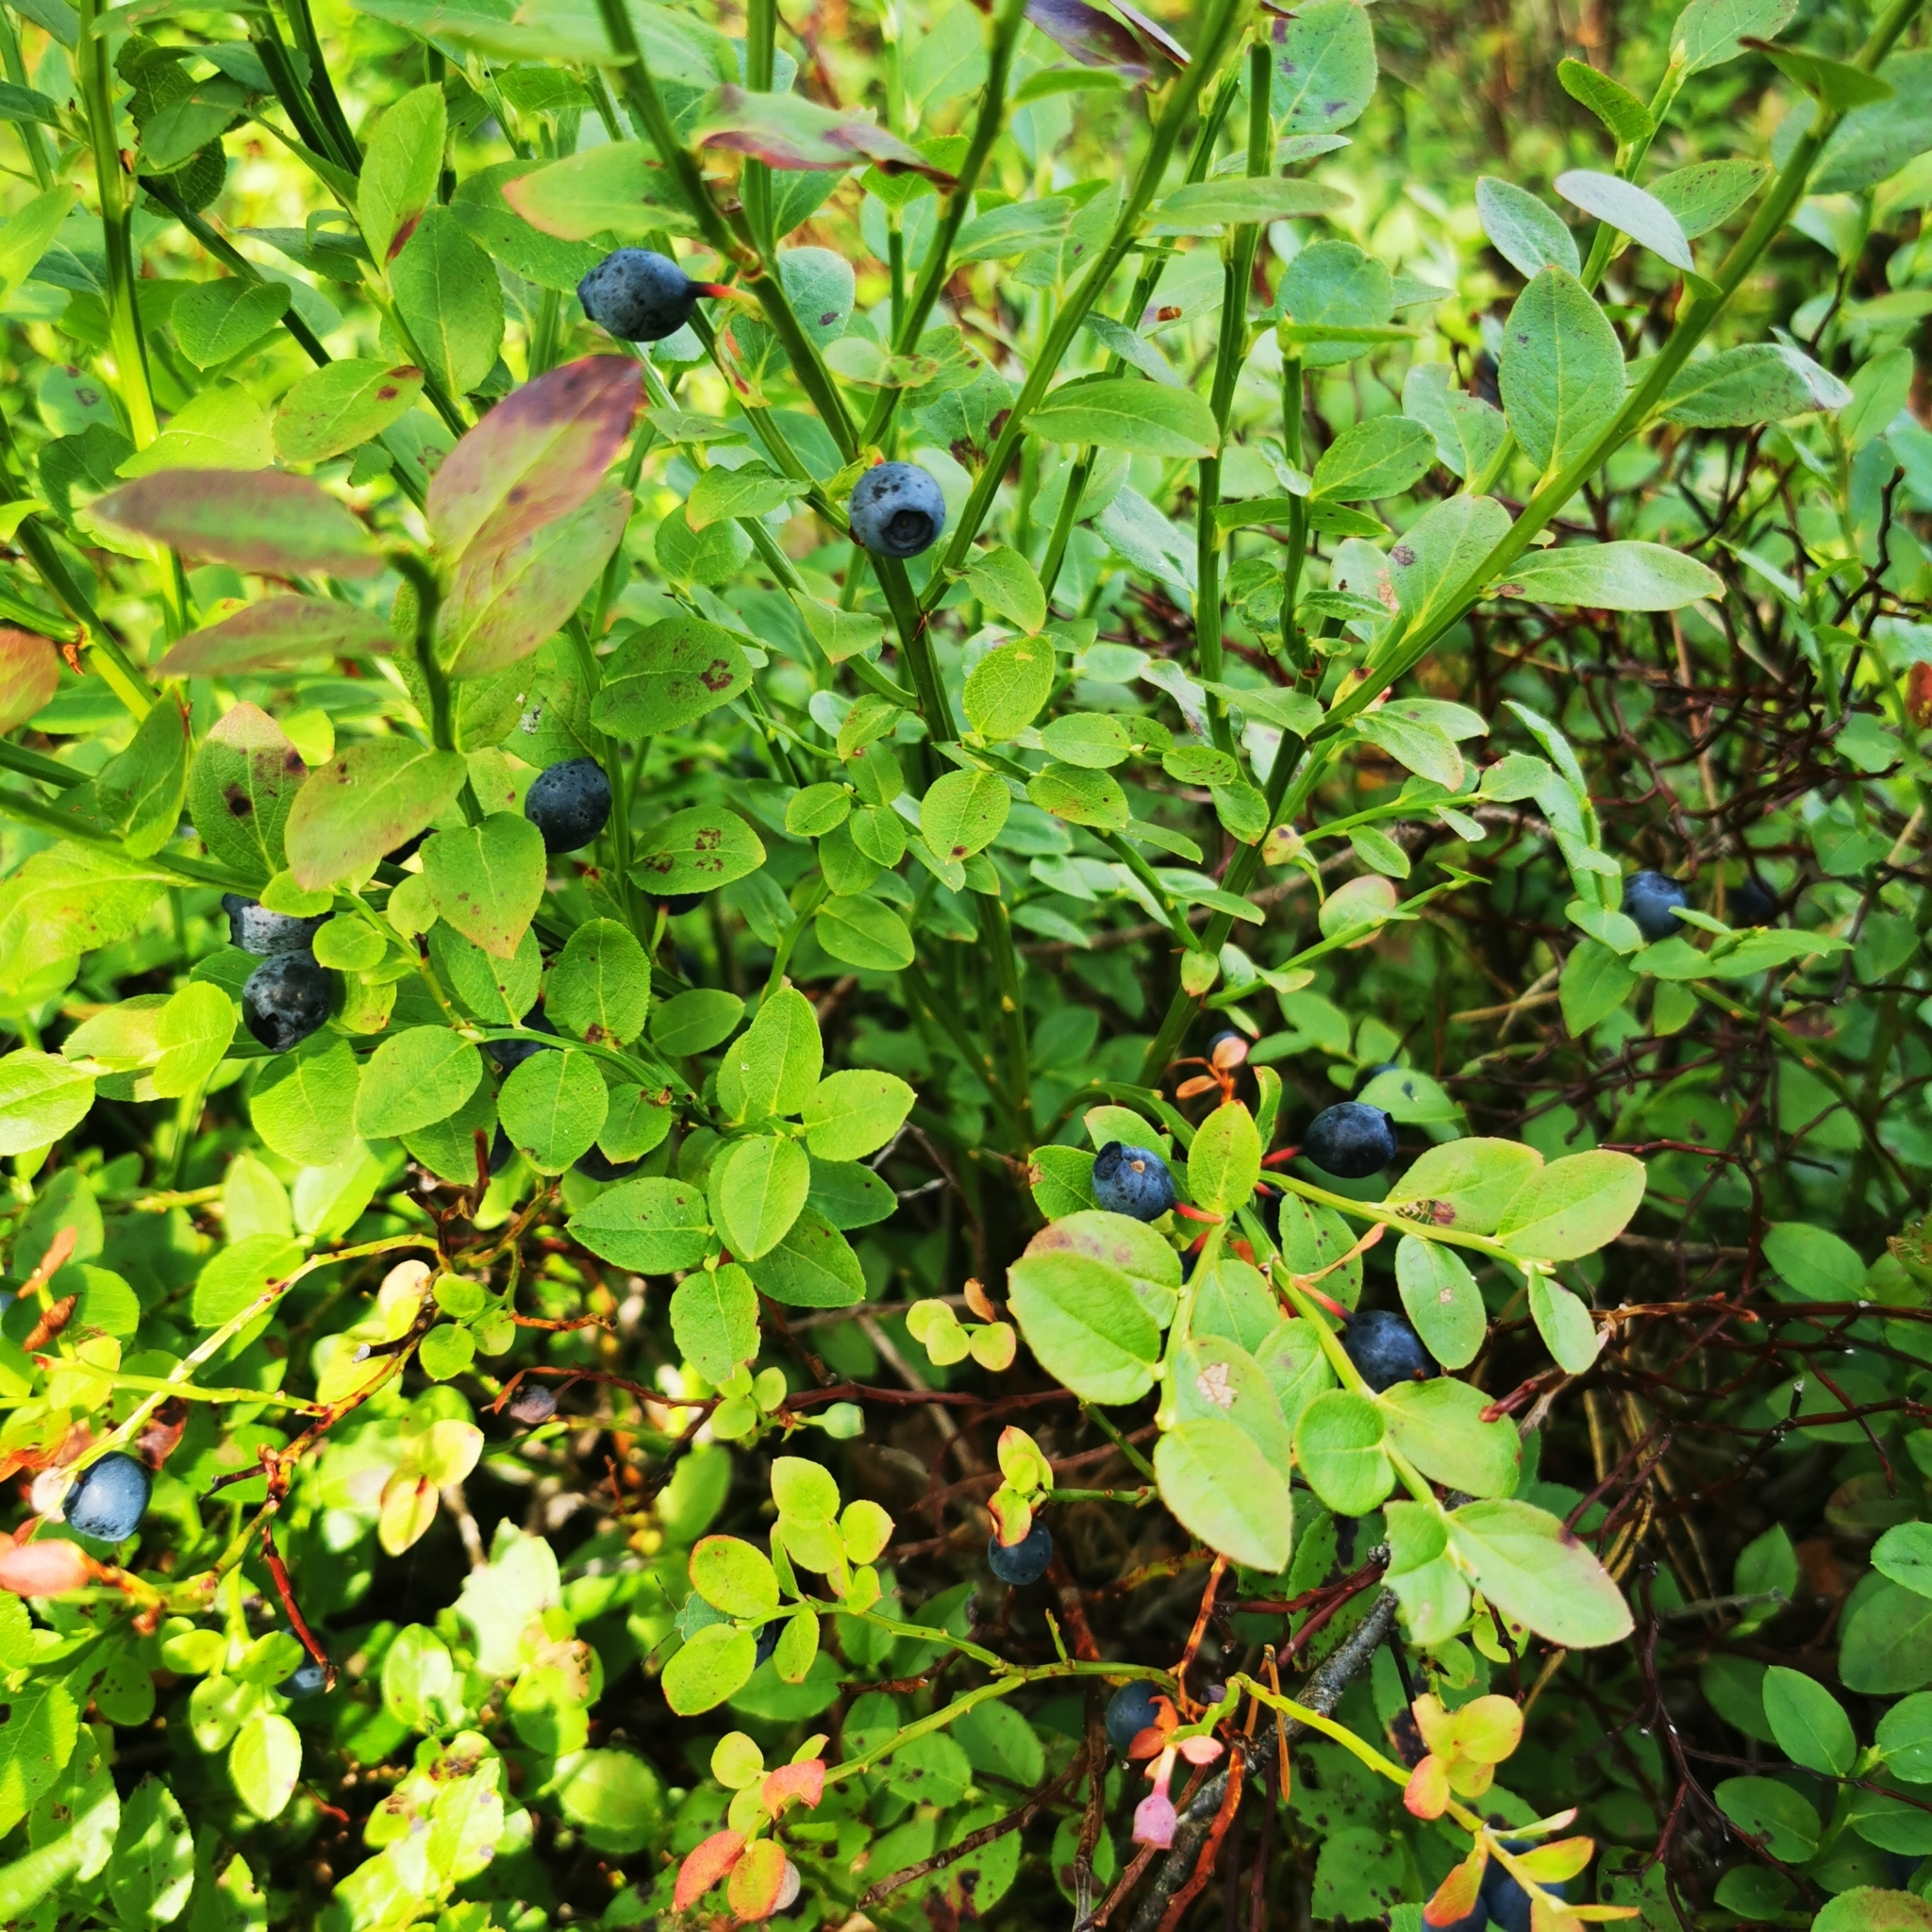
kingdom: Plantae
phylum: Tracheophyta
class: Magnoliopsida
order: Ericales
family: Ericaceae
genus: Vaccinium
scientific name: Vaccinium myrtillus
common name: Bilberry
